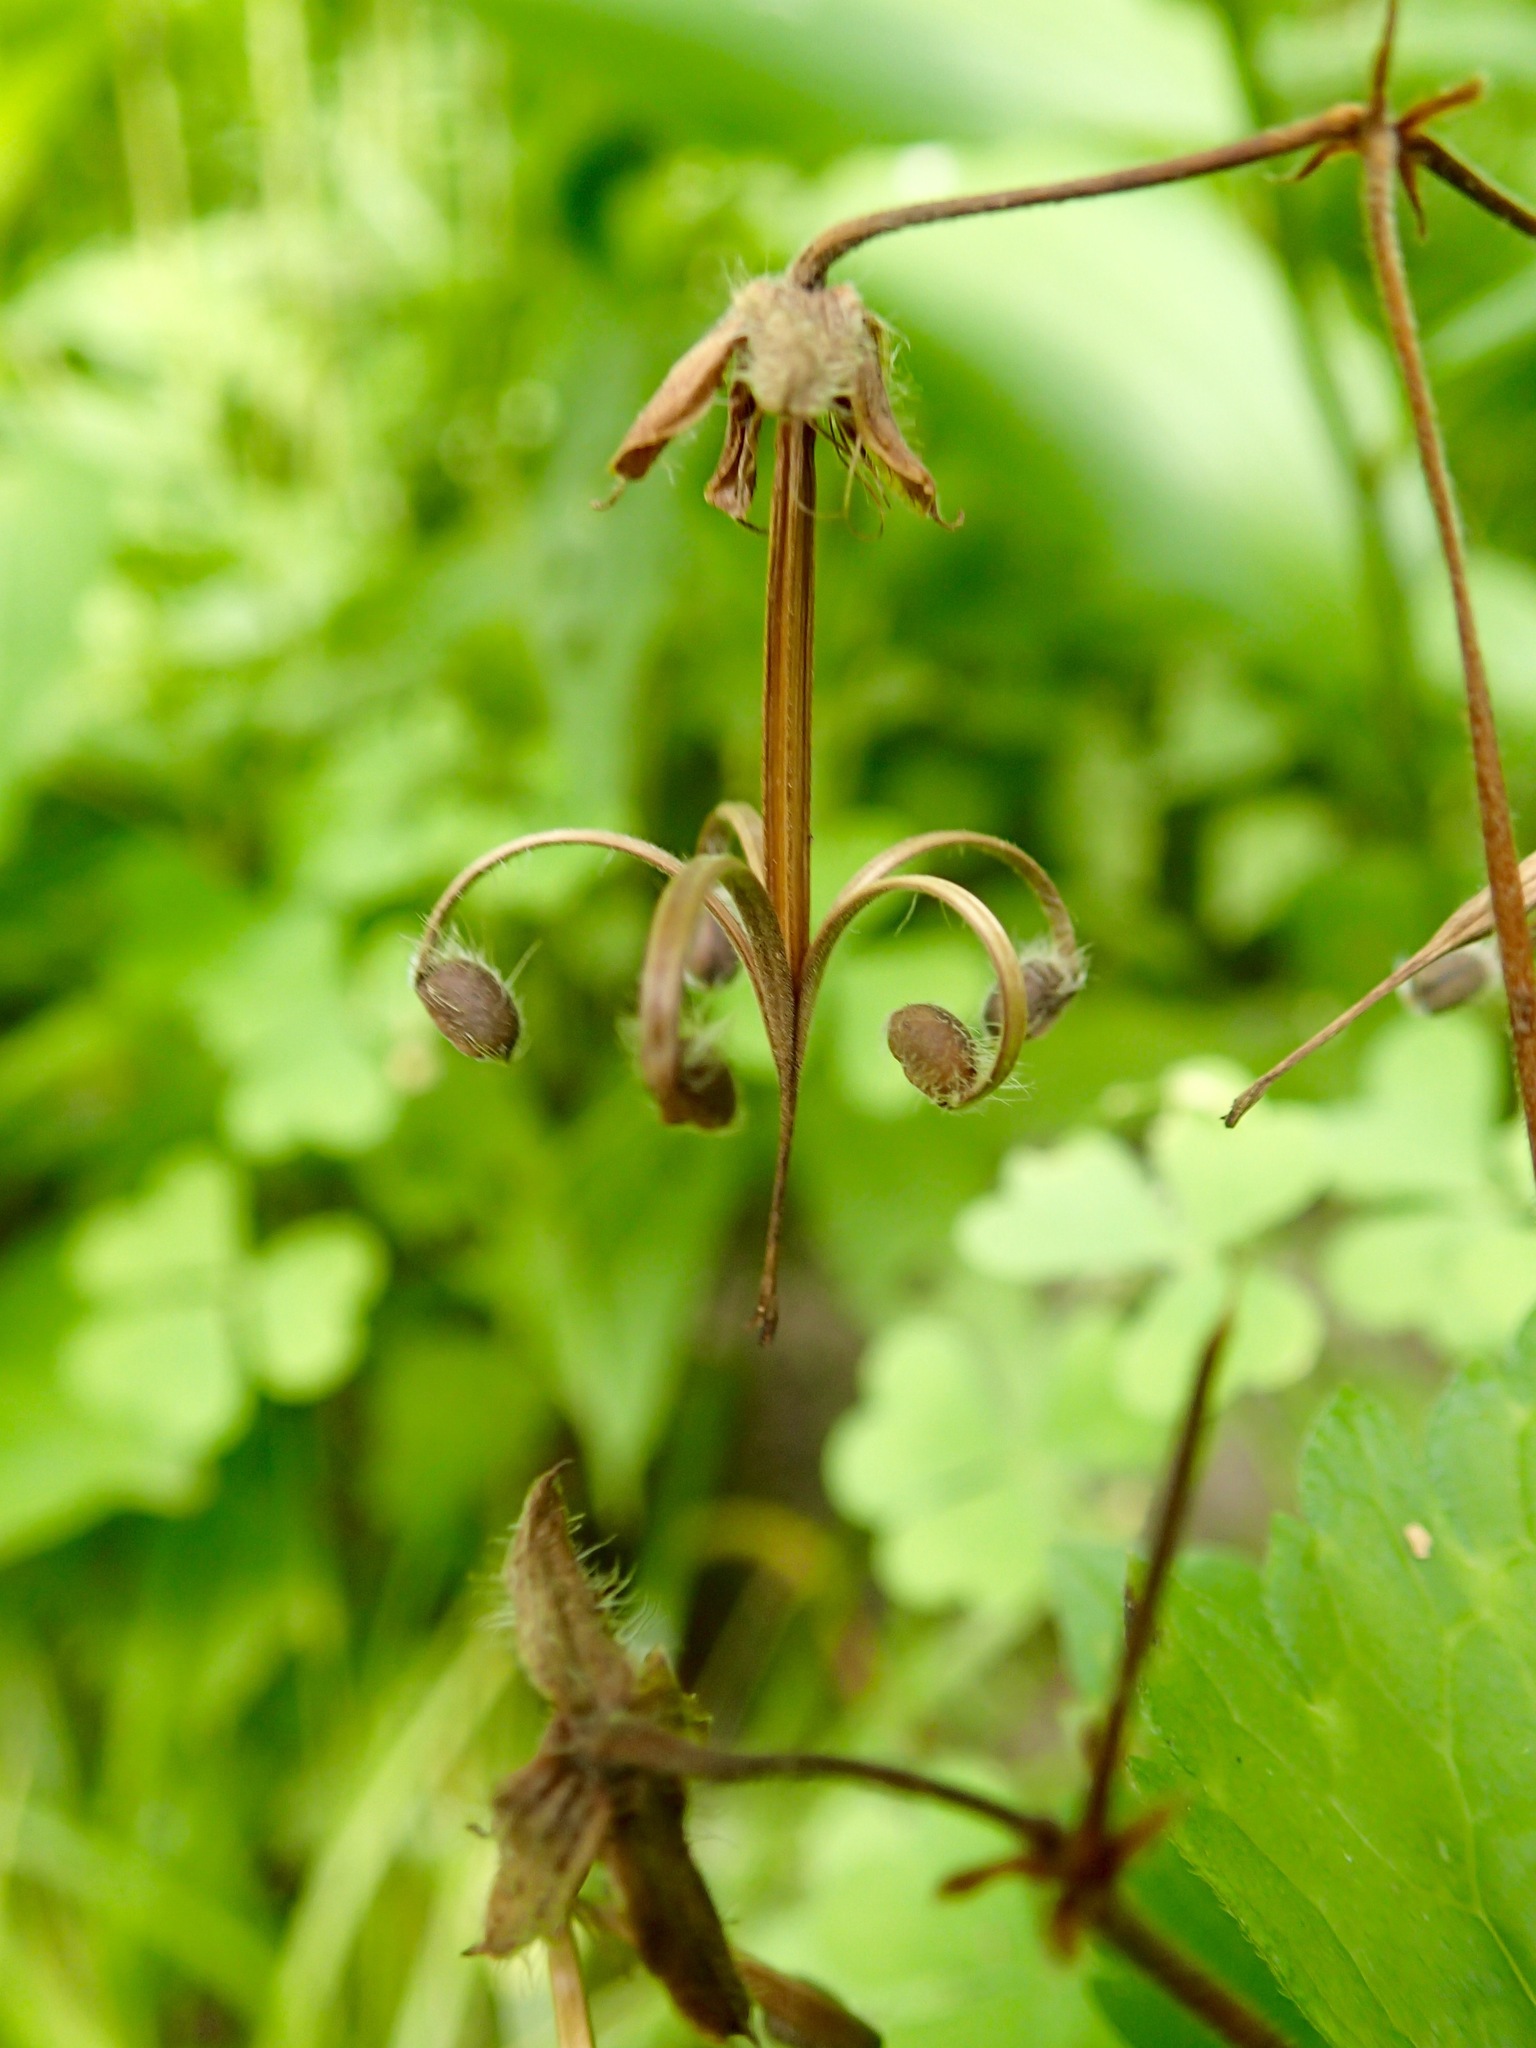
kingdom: Plantae
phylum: Tracheophyta
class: Magnoliopsida
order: Geraniales
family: Geraniaceae
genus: Geranium
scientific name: Geranium maculatum
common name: Spotted geranium
